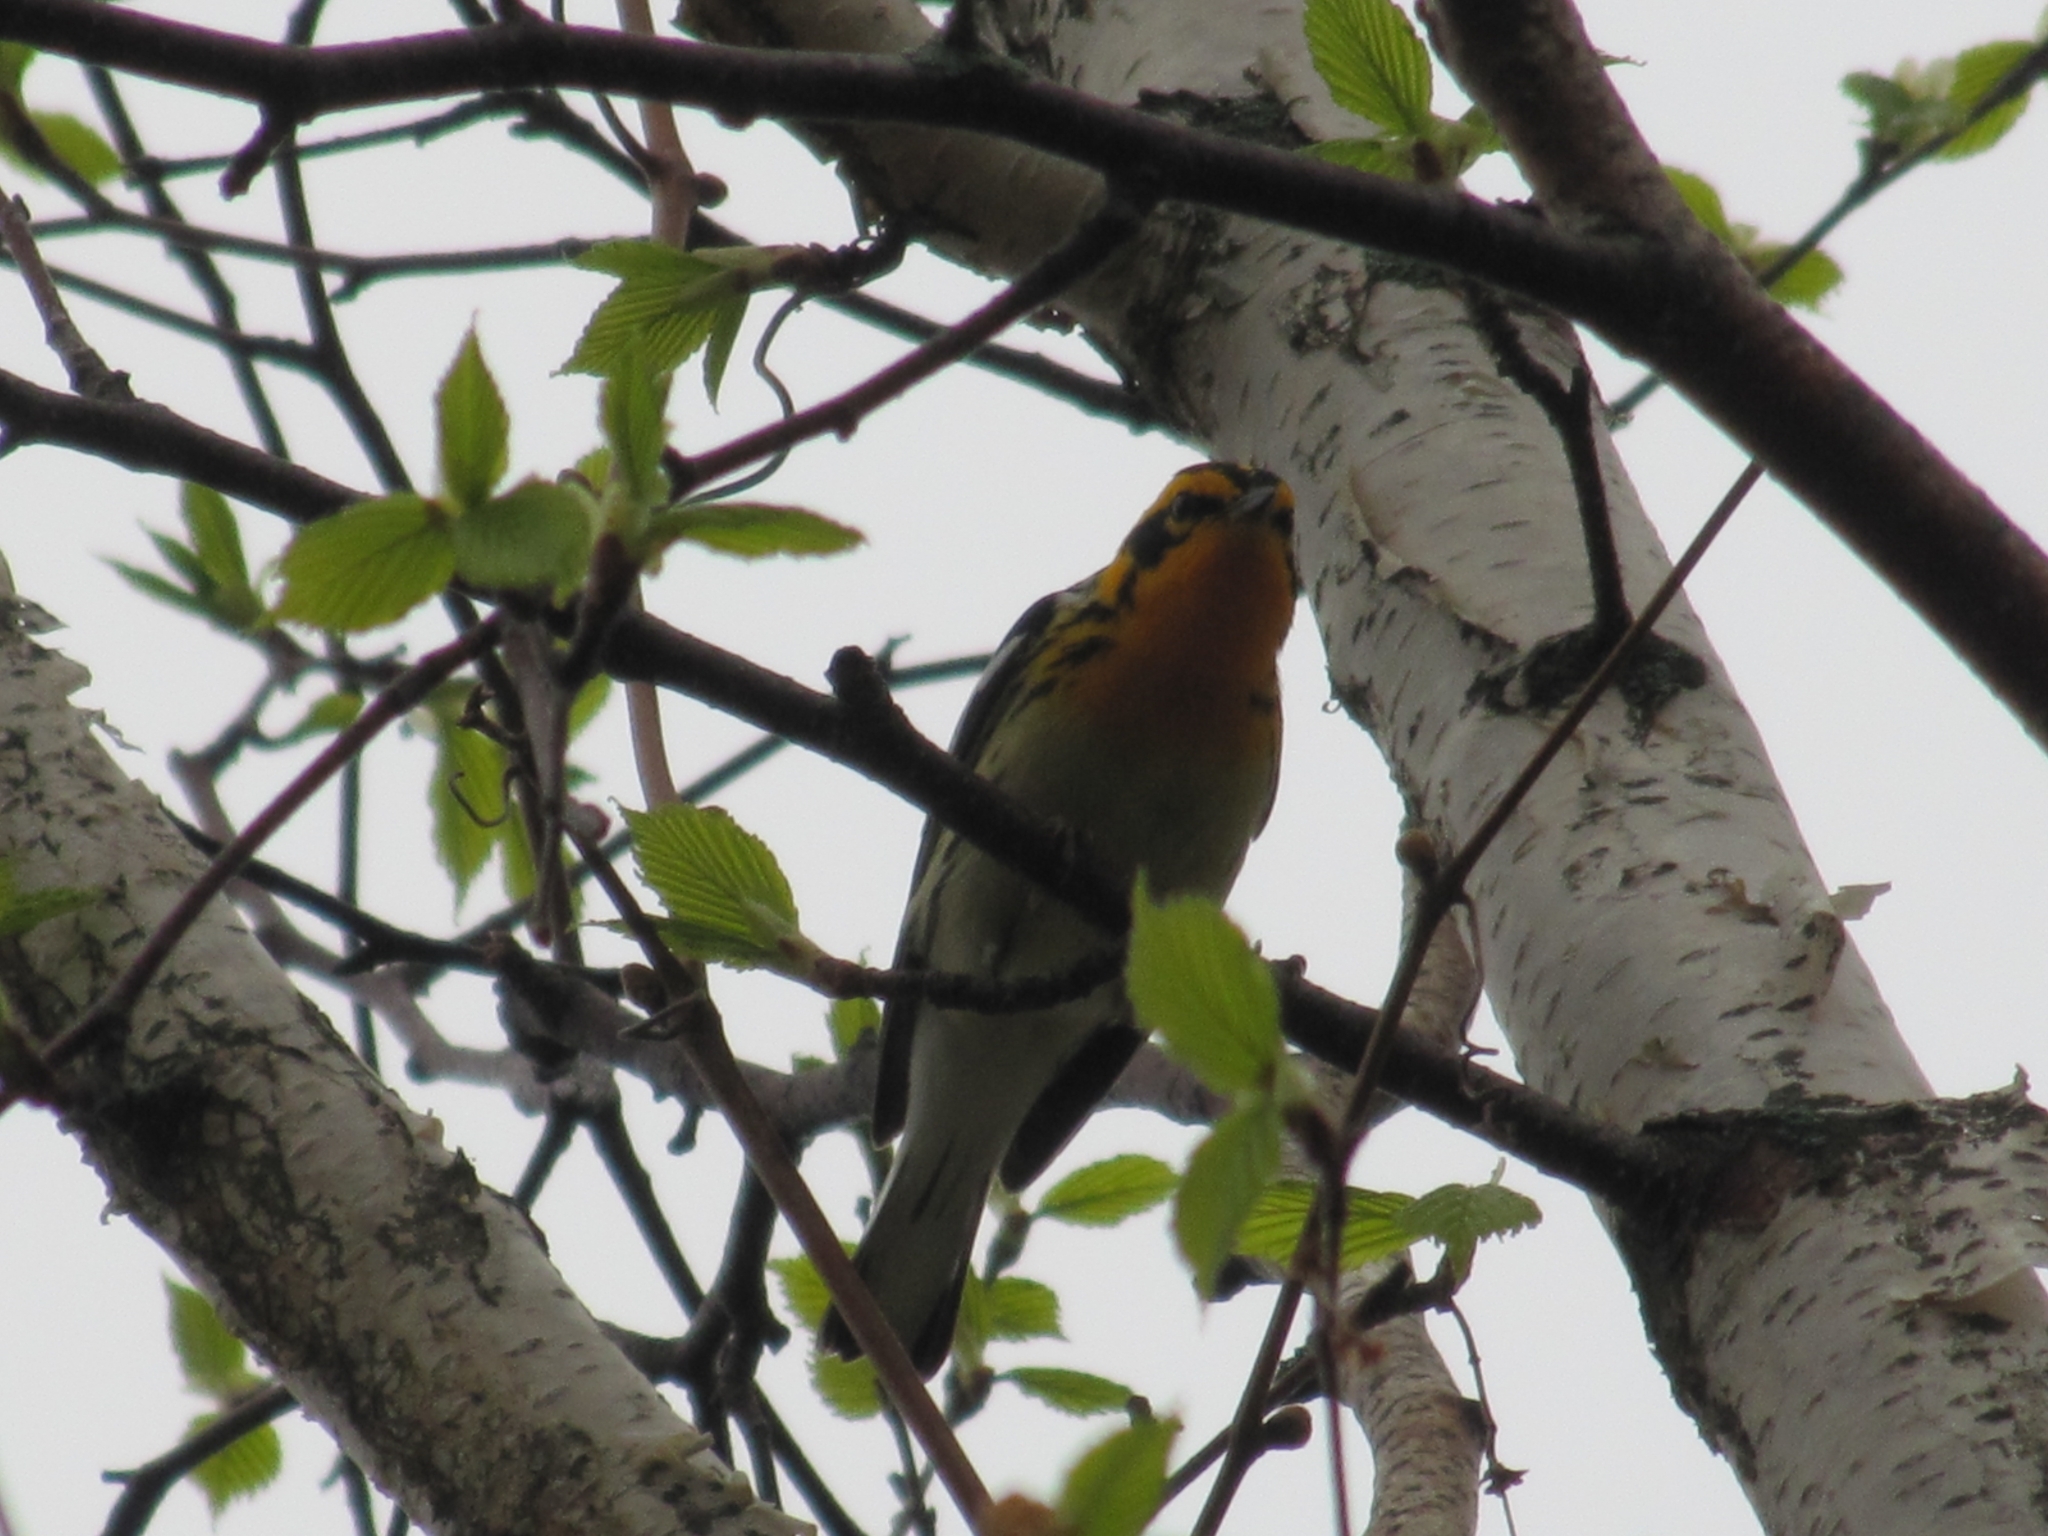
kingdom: Animalia
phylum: Chordata
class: Aves
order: Passeriformes
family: Parulidae
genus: Setophaga
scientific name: Setophaga fusca
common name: Blackburnian warbler
